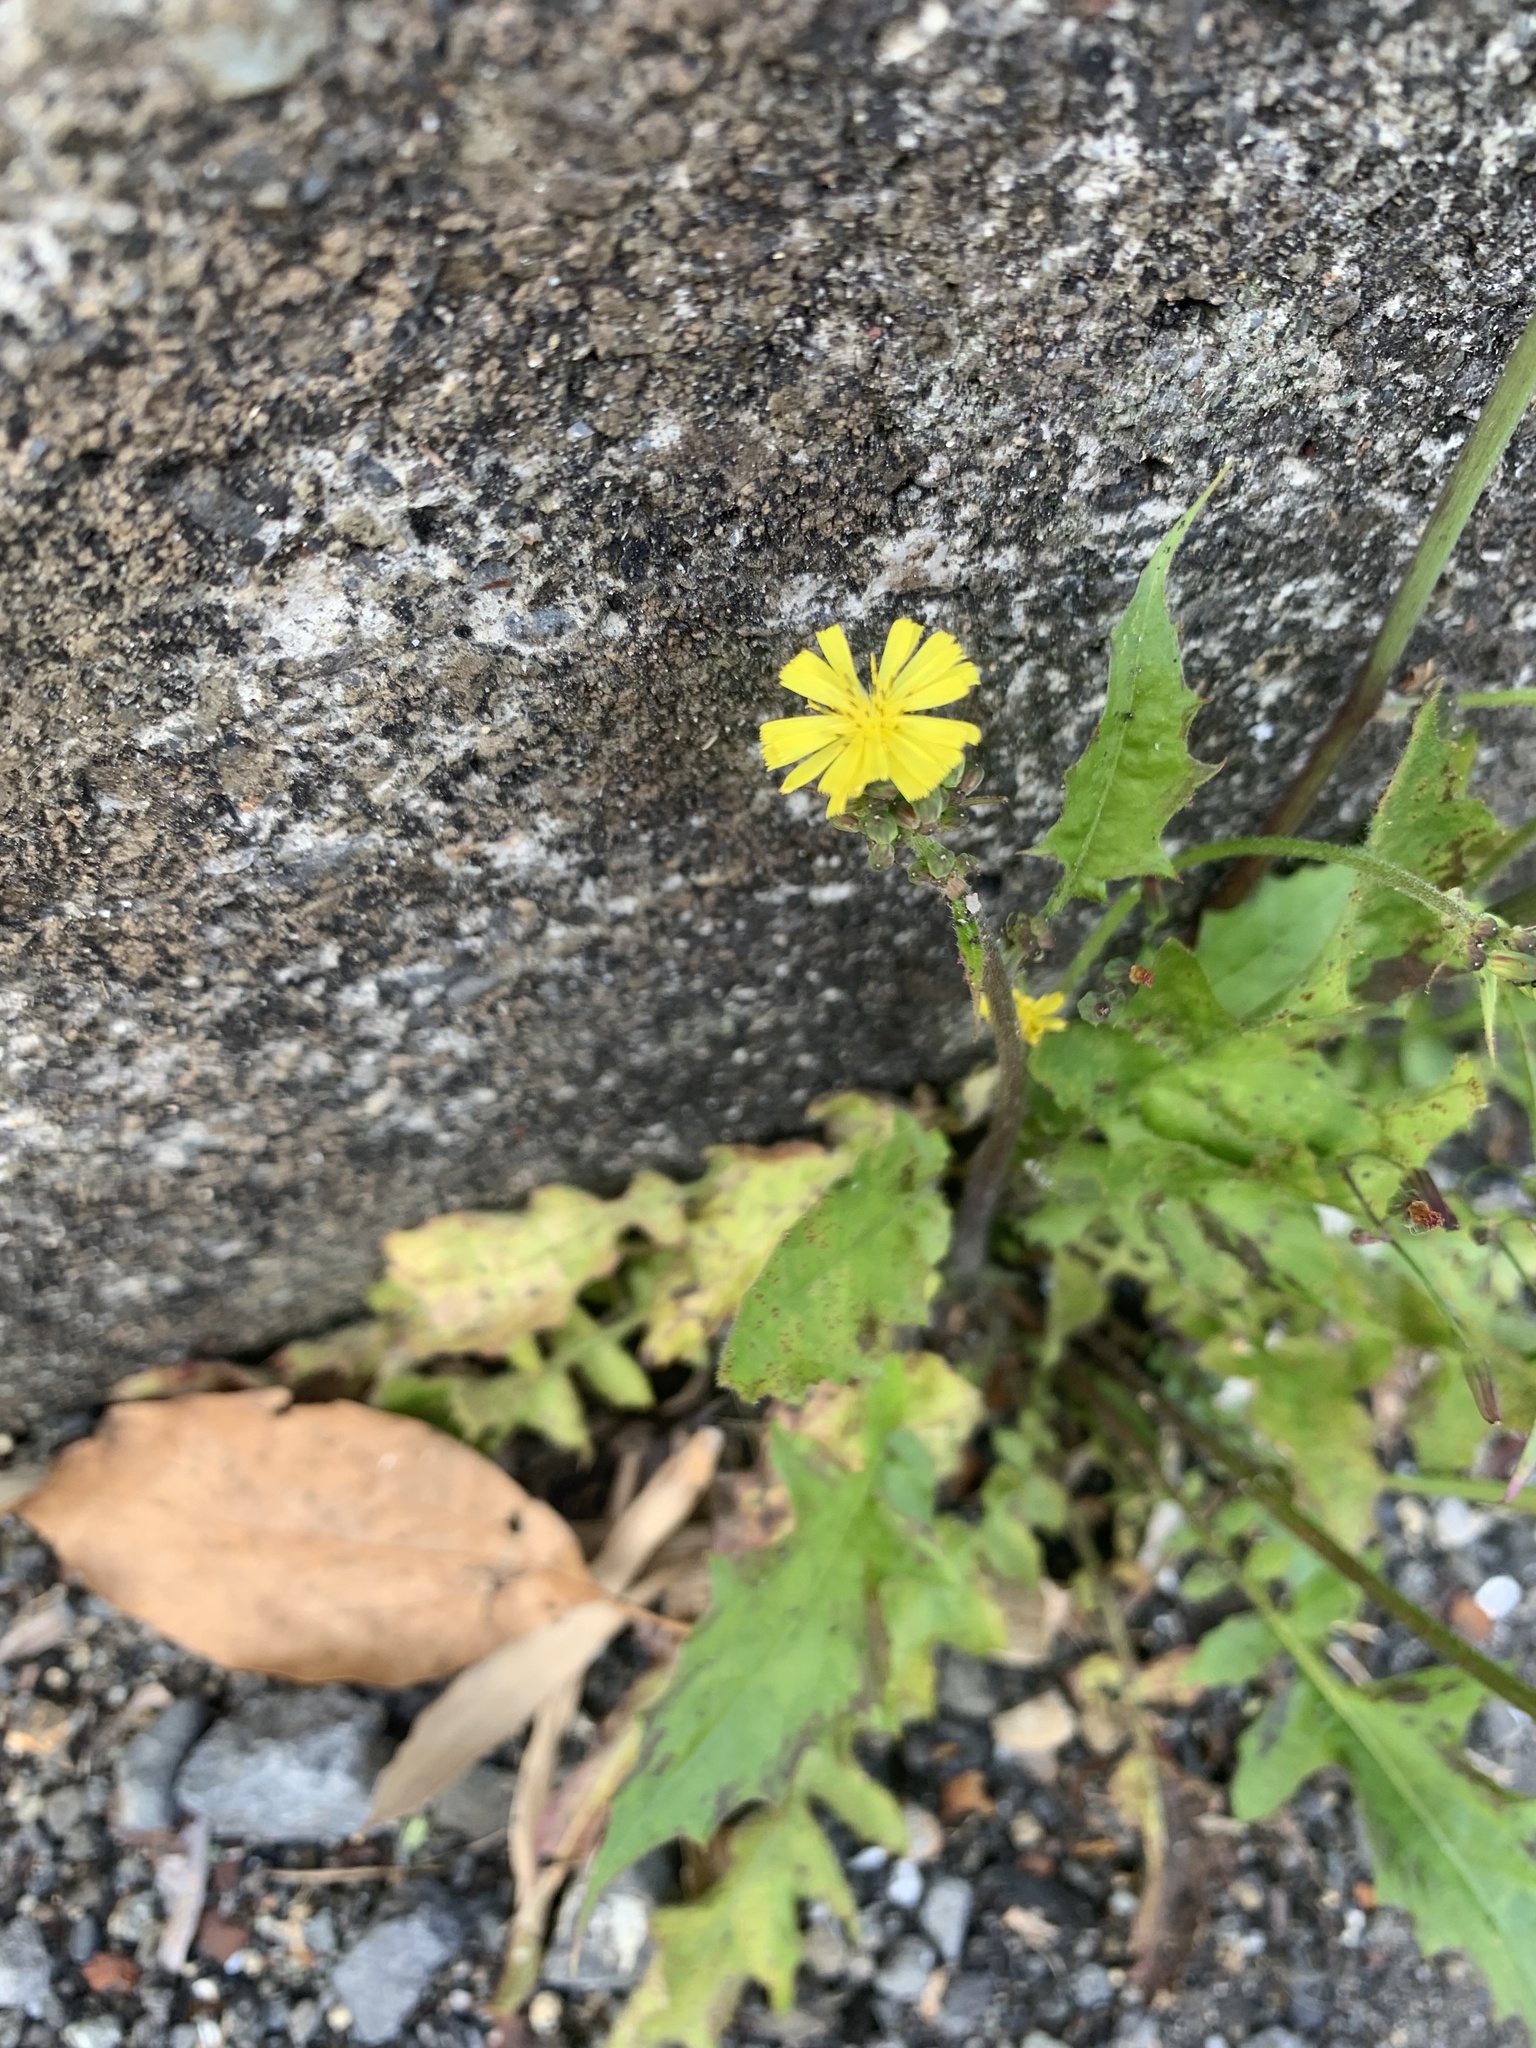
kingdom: Plantae
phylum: Tracheophyta
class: Magnoliopsida
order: Asterales
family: Asteraceae
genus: Youngia
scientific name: Youngia japonica
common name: Oriental false hawksbeard
